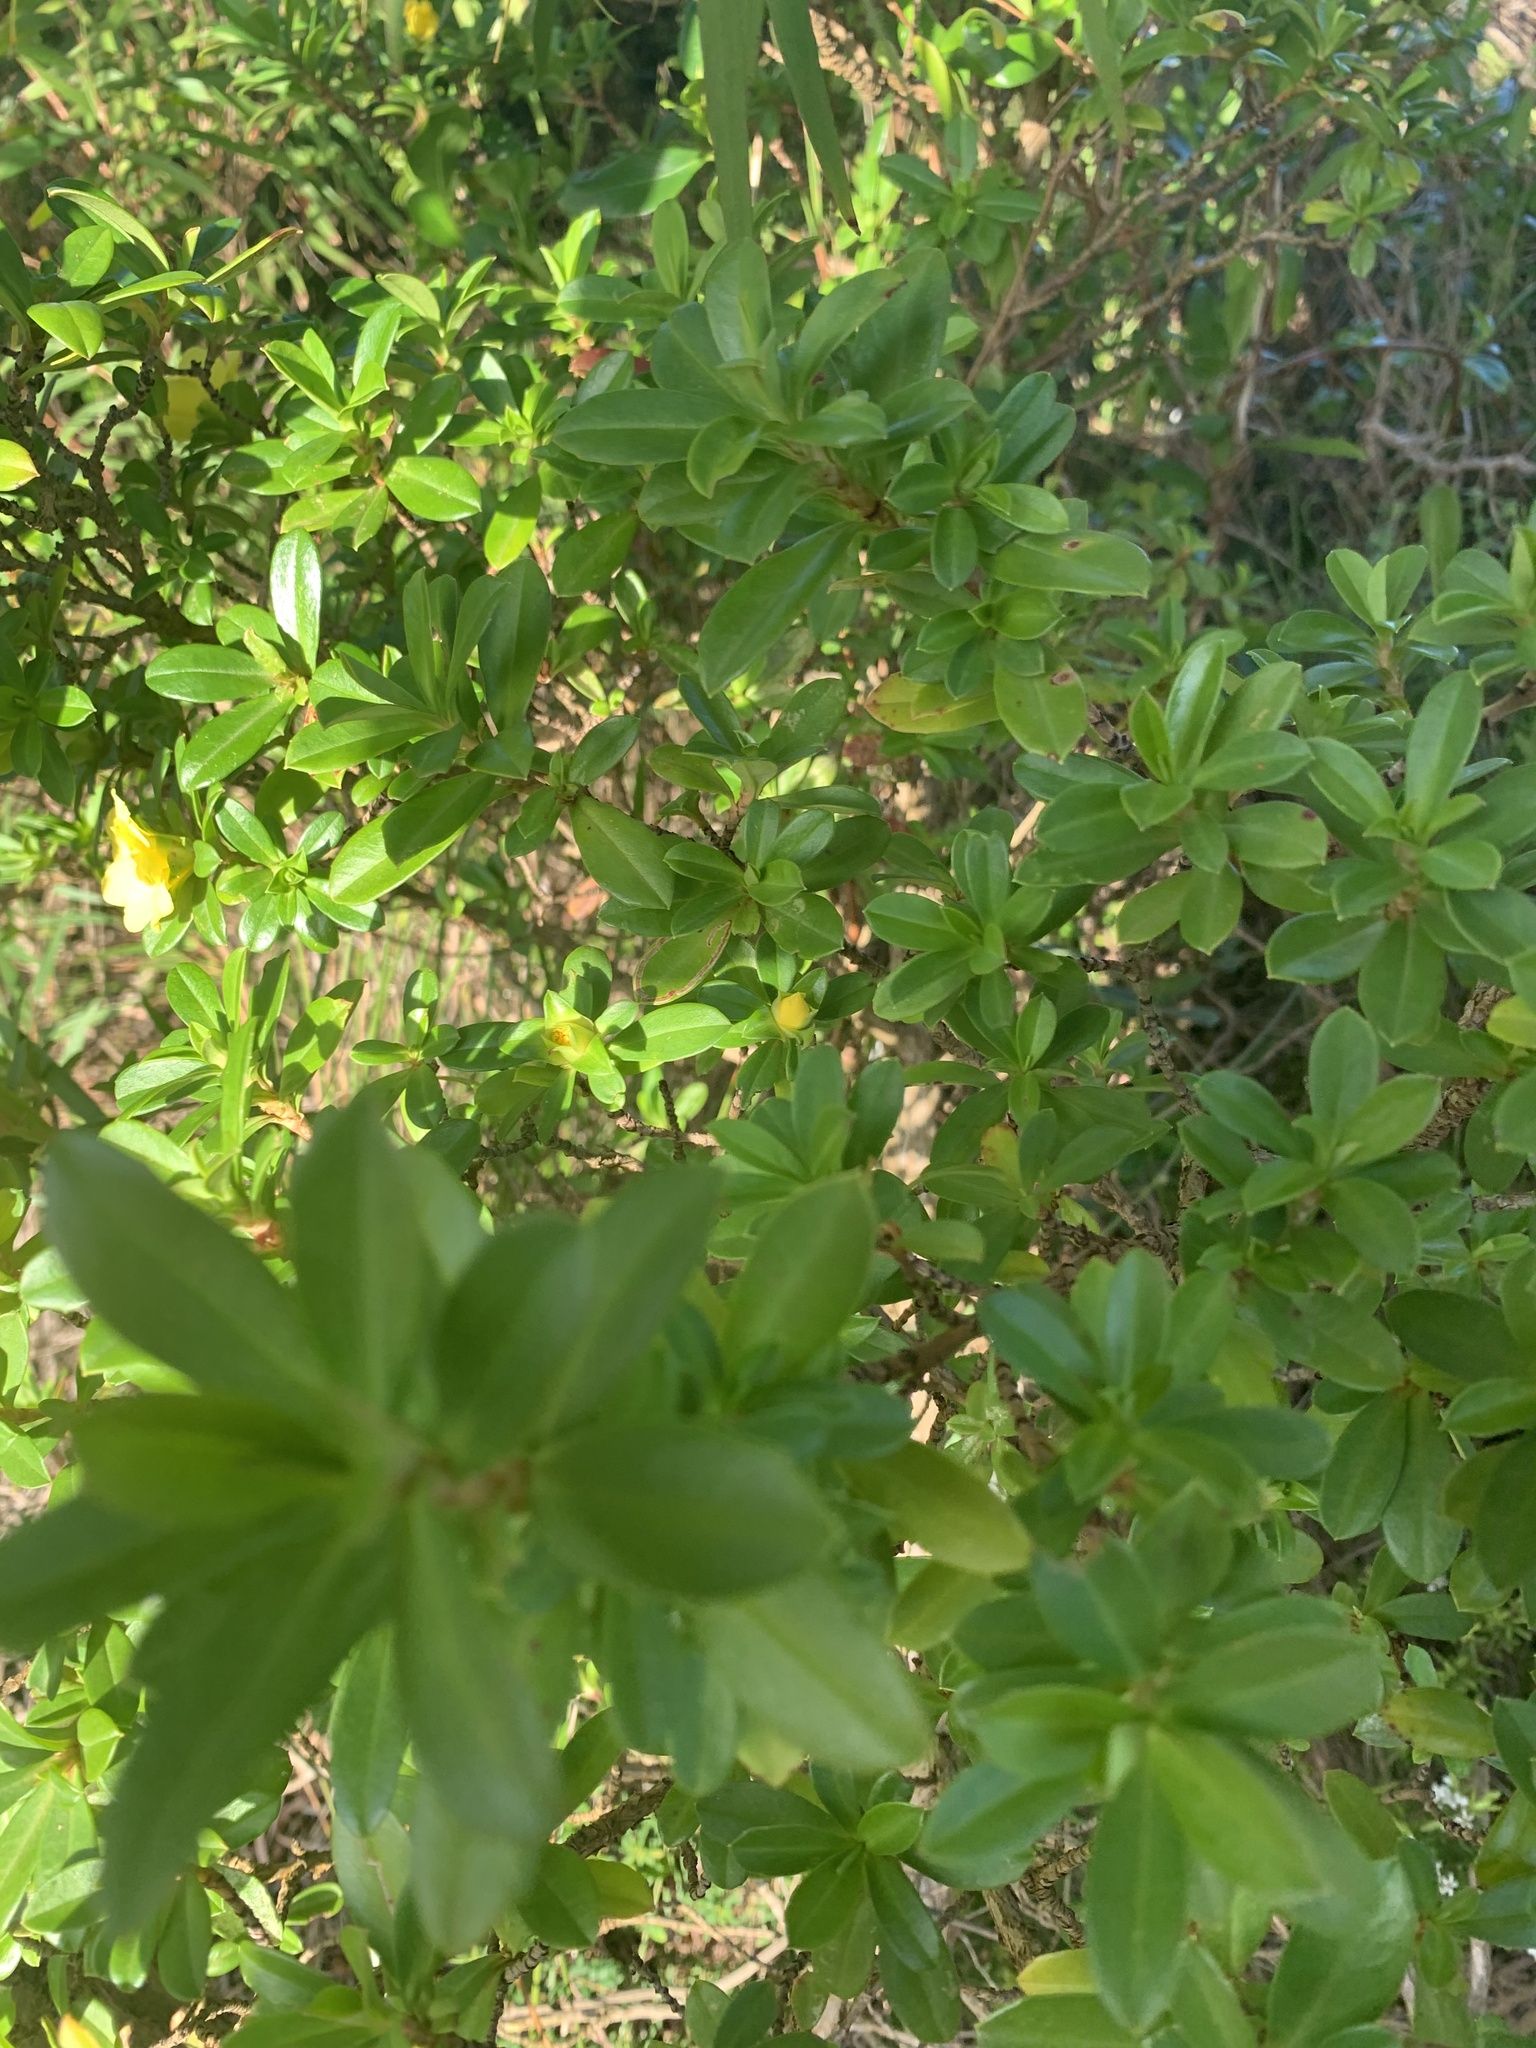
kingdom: Plantae
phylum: Tracheophyta
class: Magnoliopsida
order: Dilleniales
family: Dilleniaceae
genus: Hibbertia
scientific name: Hibbertia cuneiformis
